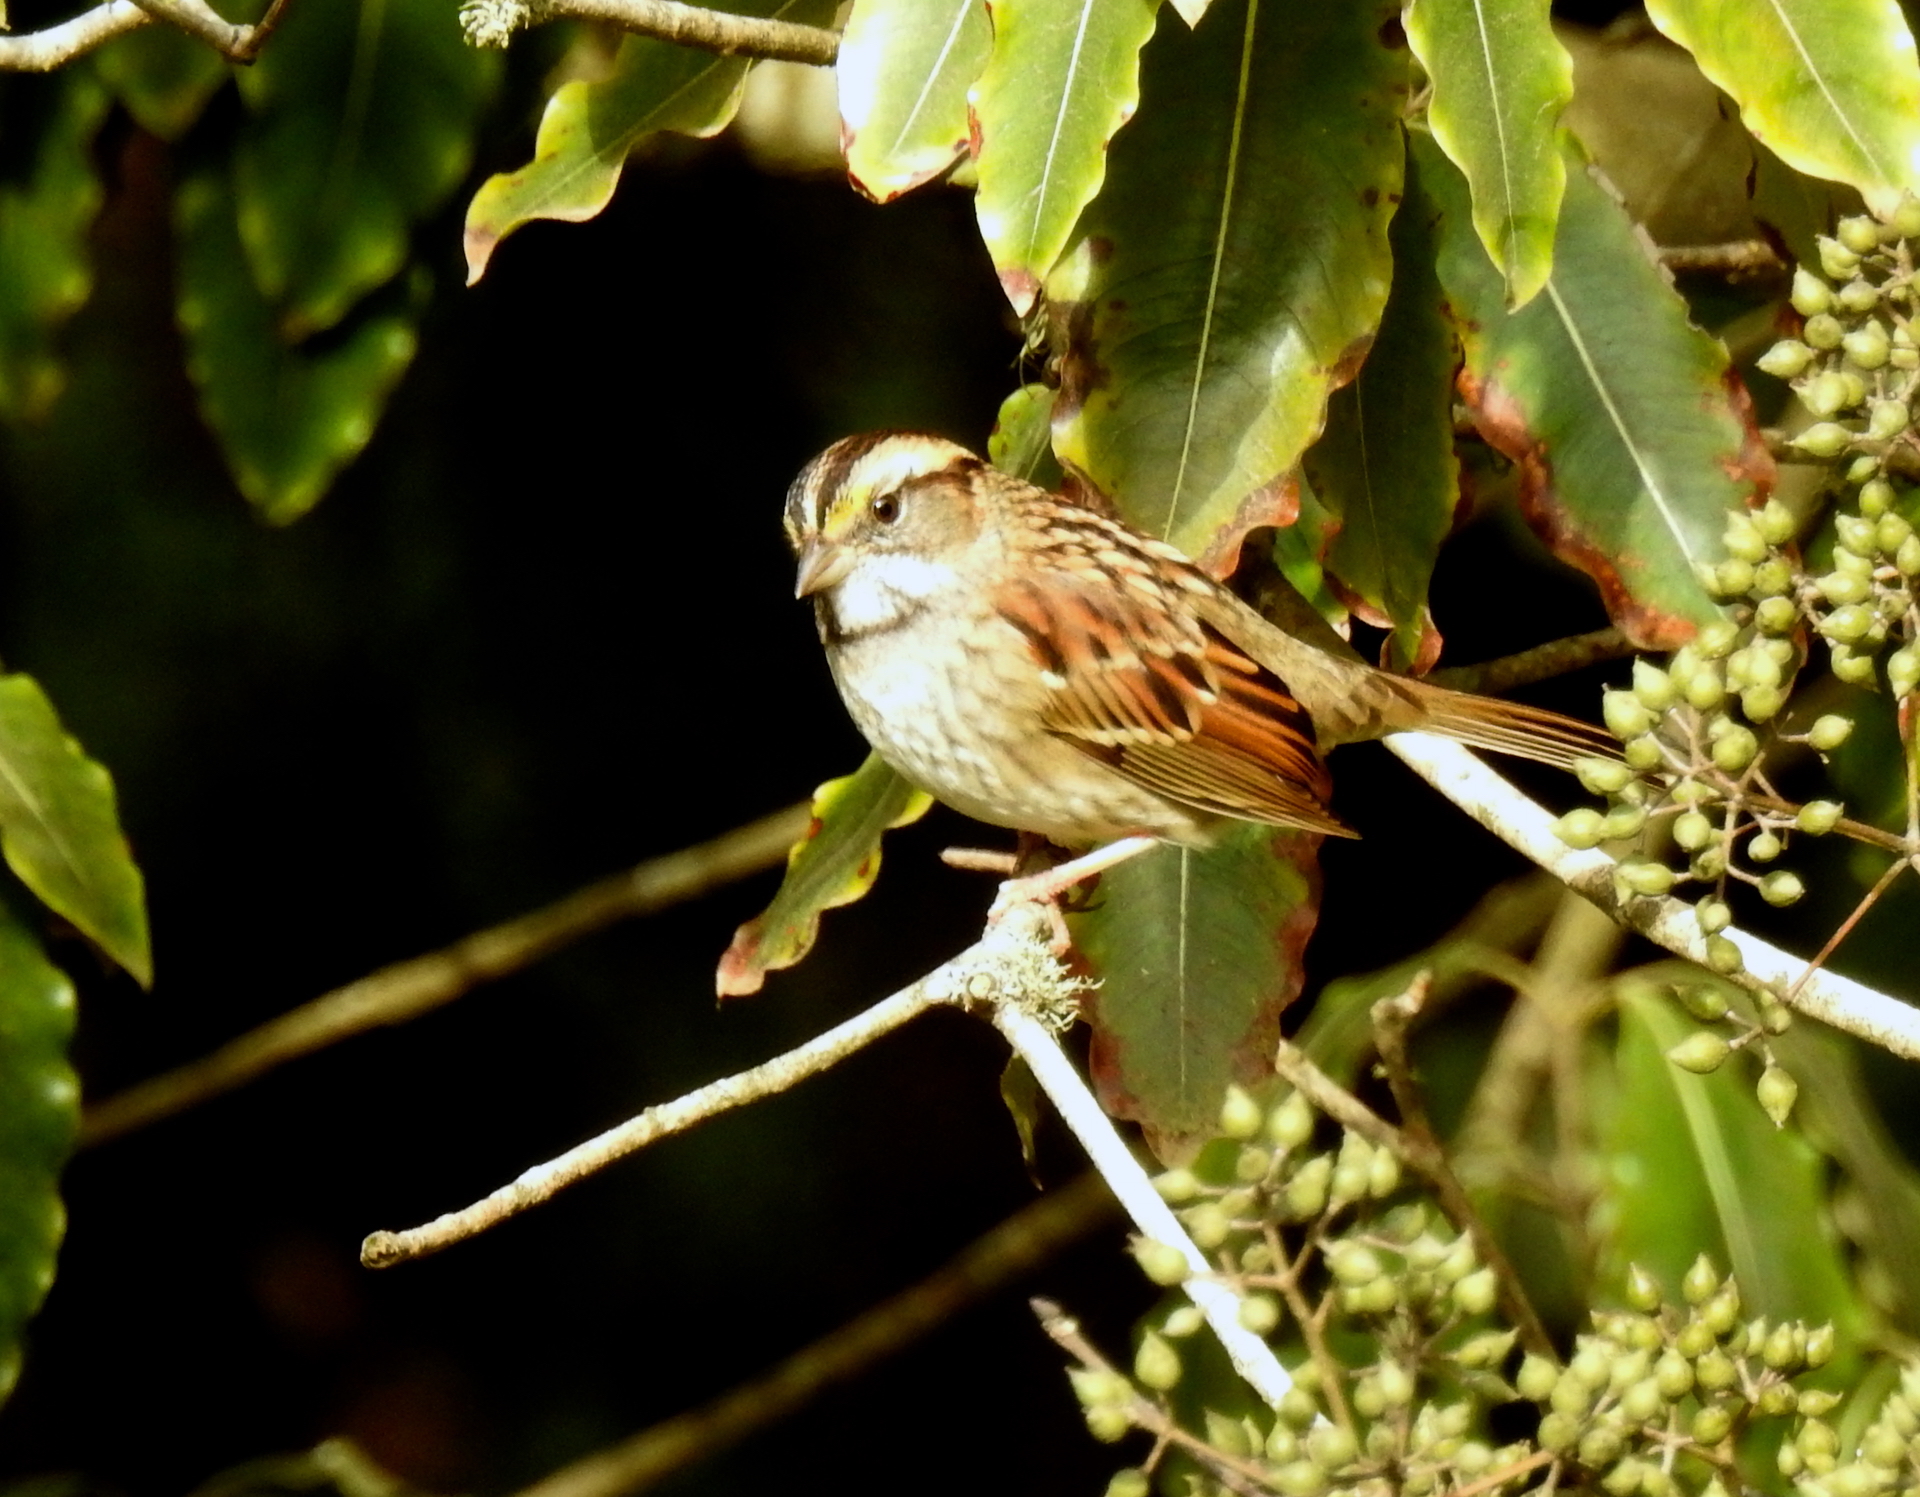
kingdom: Animalia
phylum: Chordata
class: Aves
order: Passeriformes
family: Passerellidae
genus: Zonotrichia
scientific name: Zonotrichia albicollis
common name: White-throated sparrow
